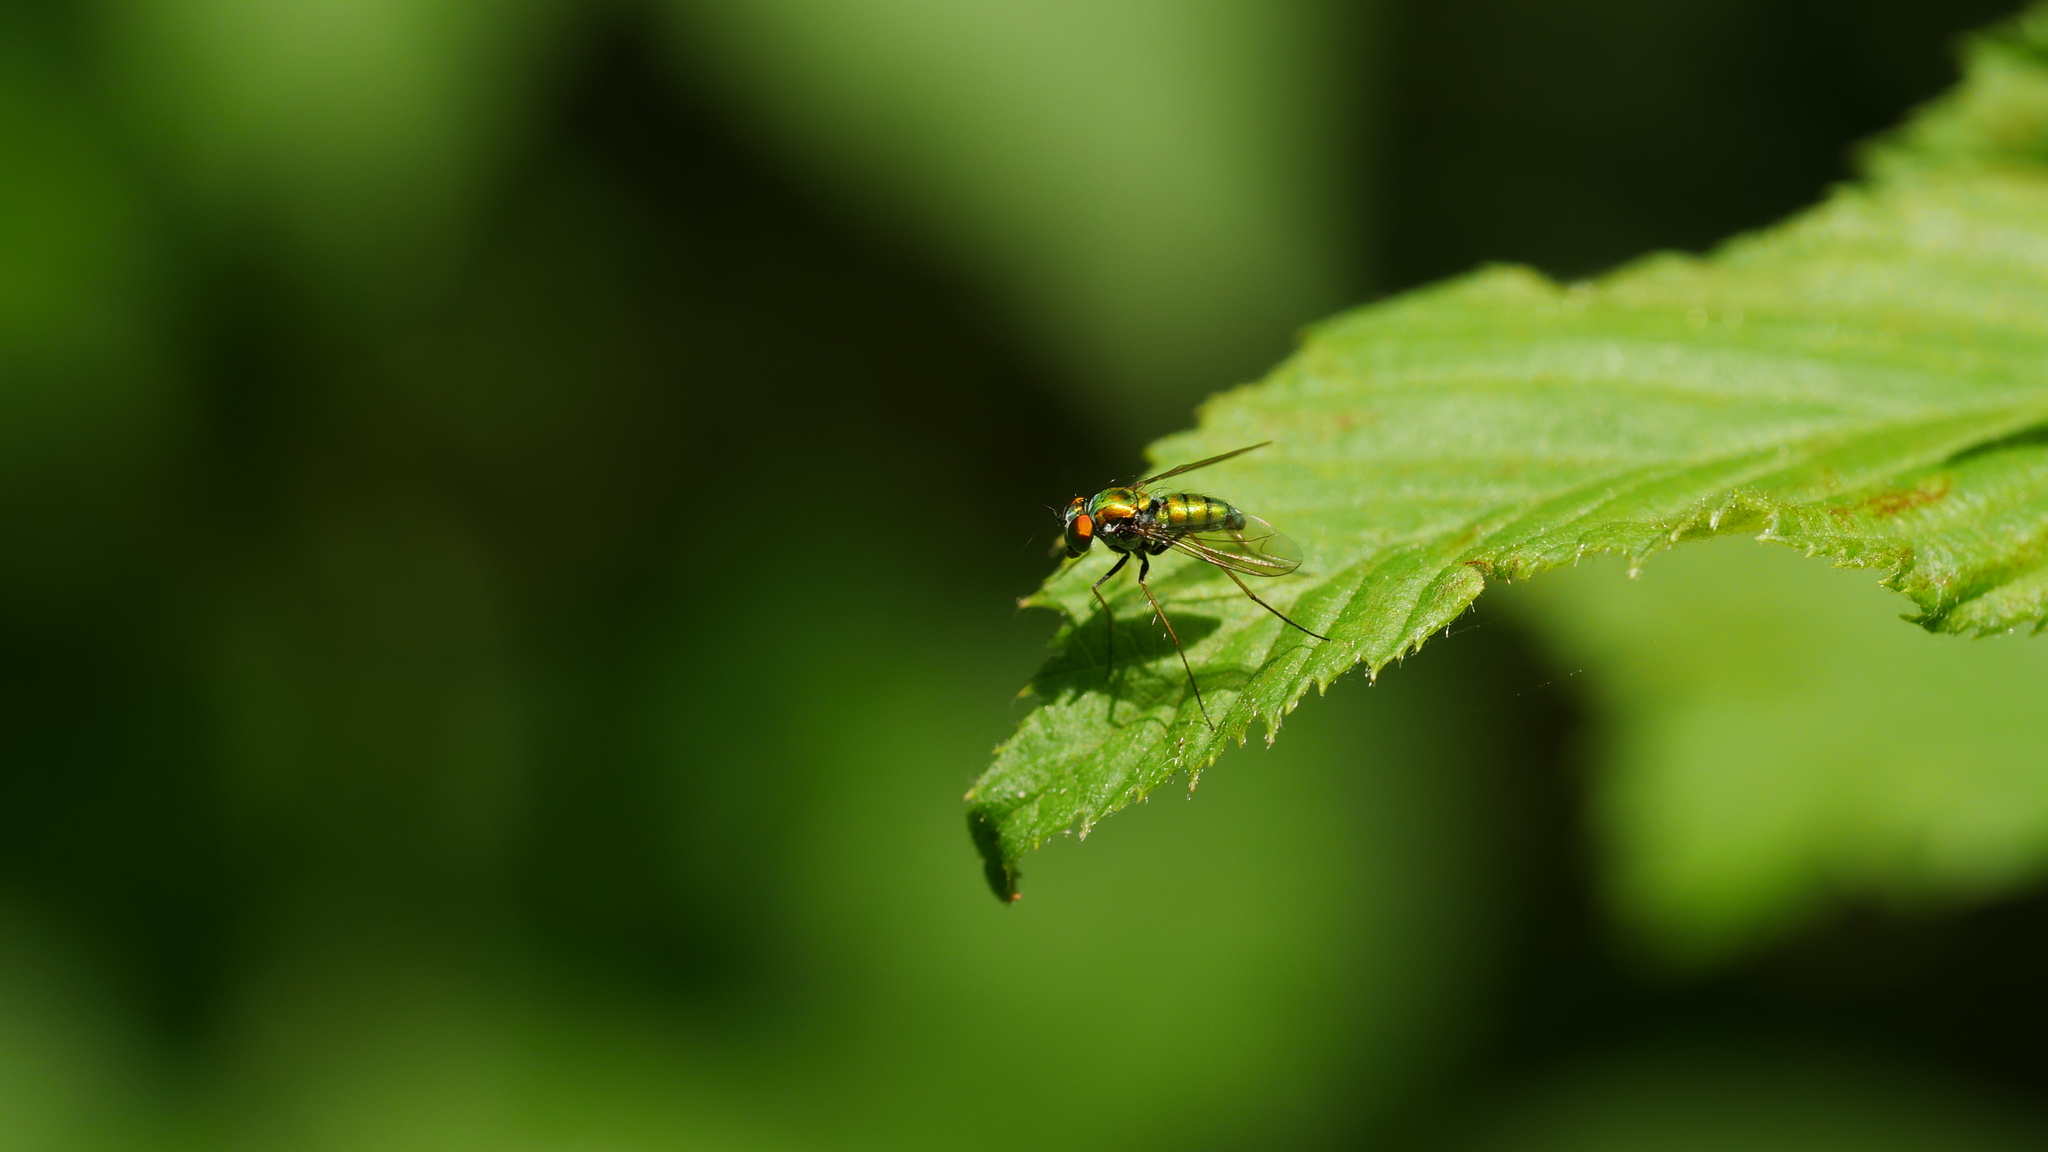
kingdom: Animalia
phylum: Arthropoda
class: Insecta
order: Diptera
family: Dolichopodidae
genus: Condylostylus
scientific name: Condylostylus
